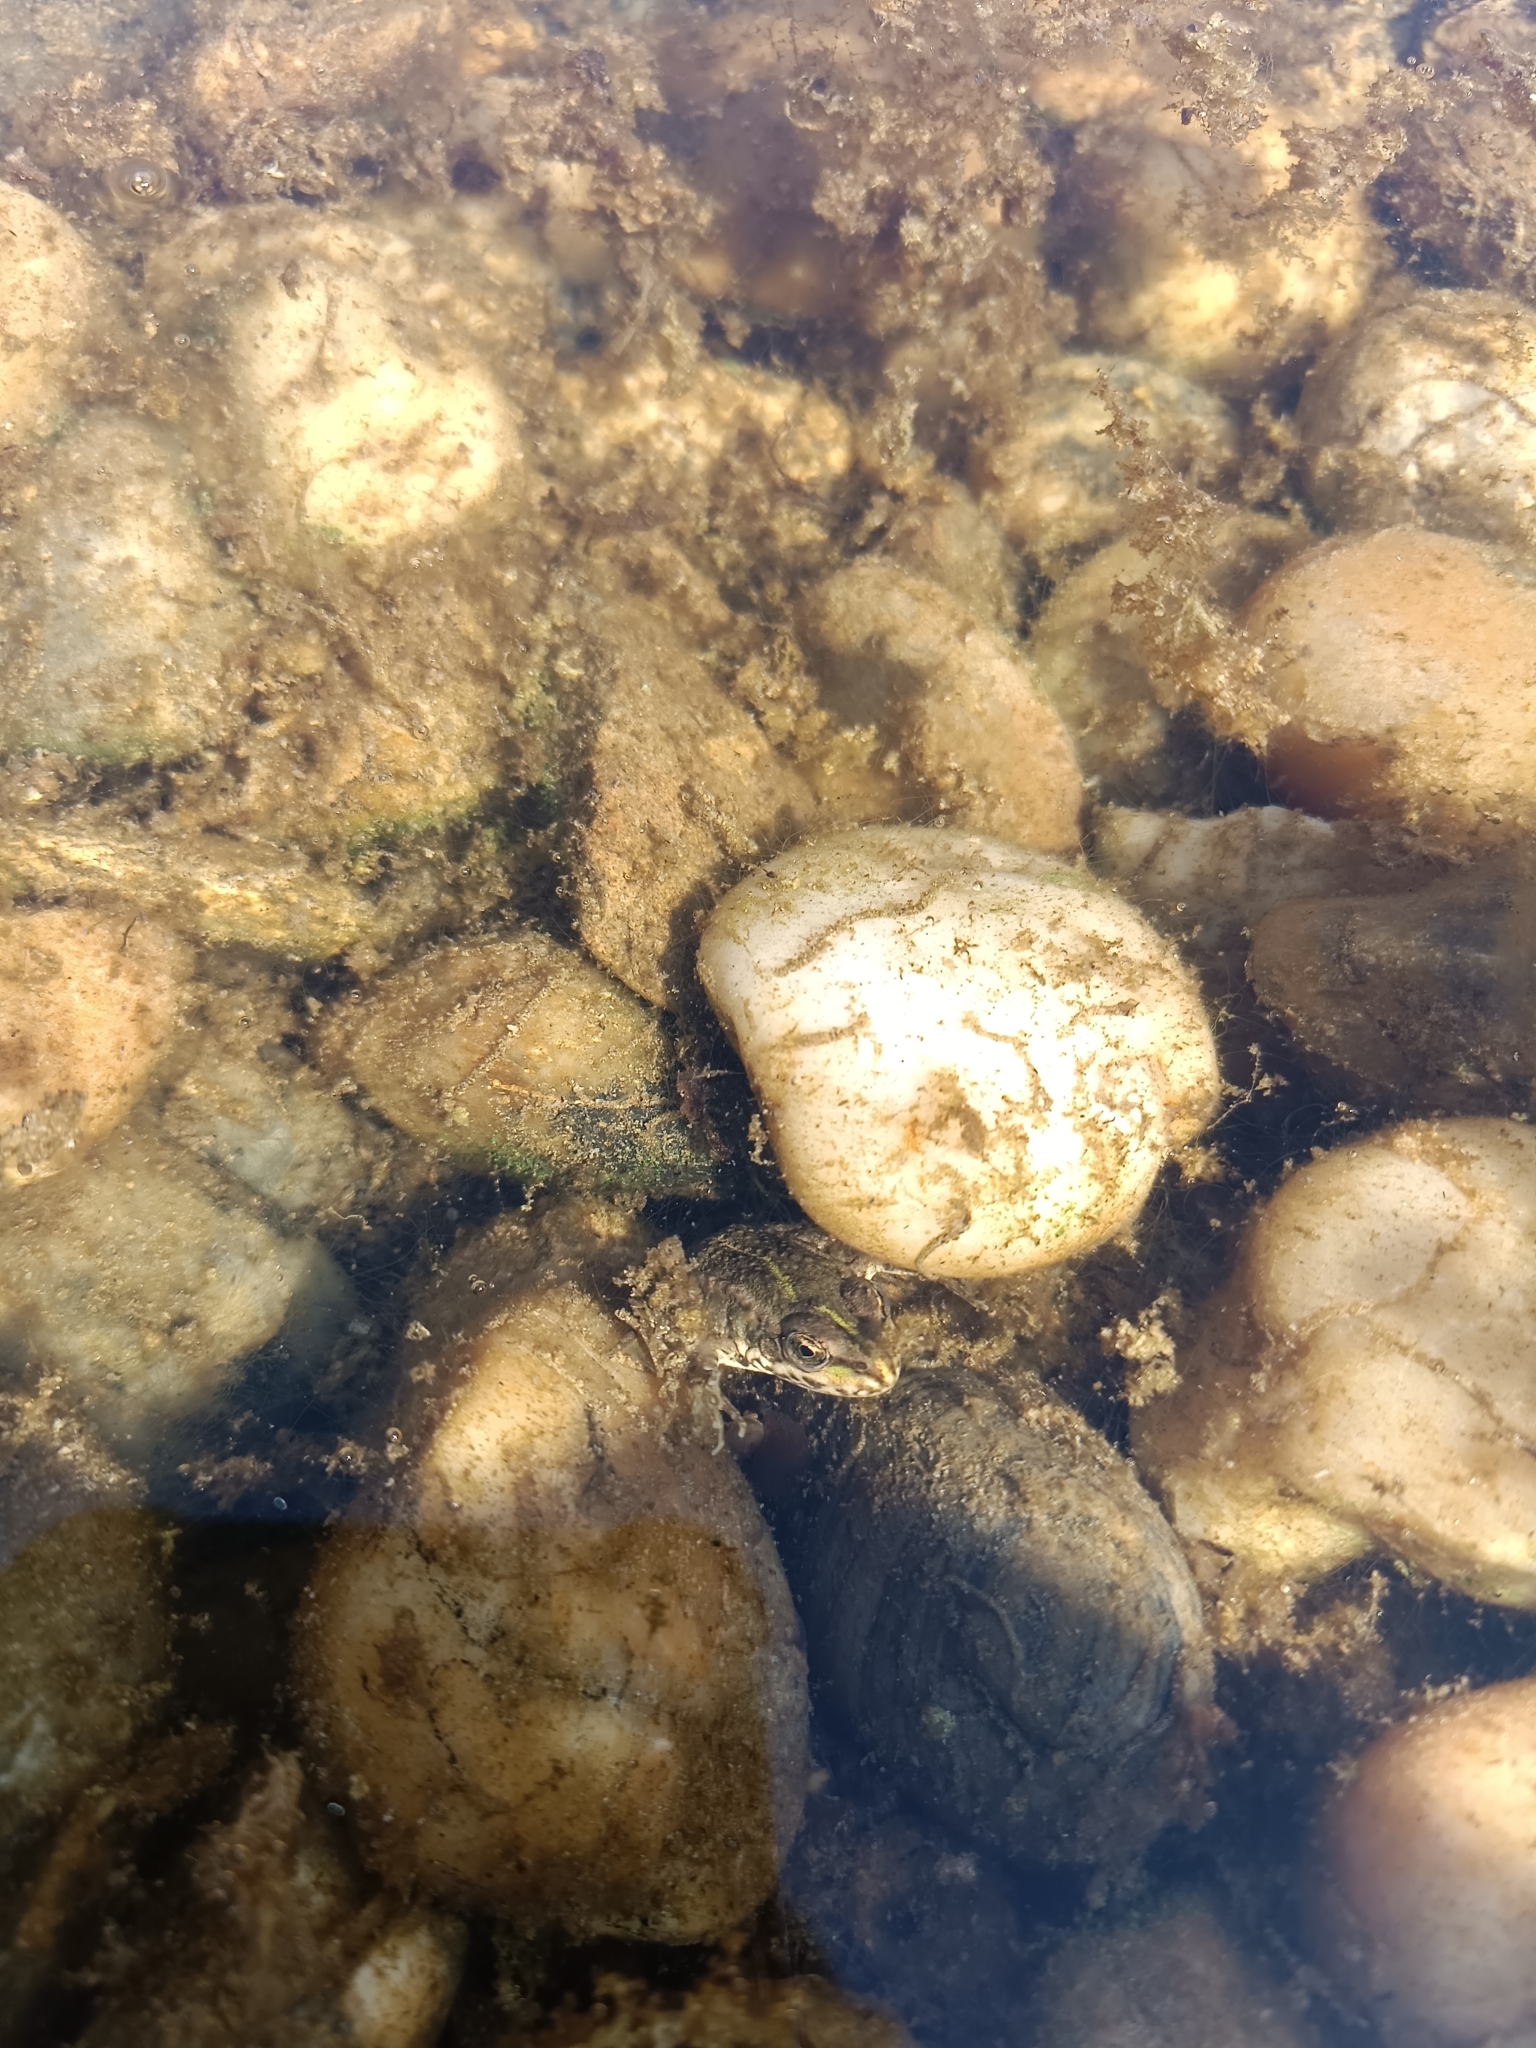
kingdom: Animalia
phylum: Chordata
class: Amphibia
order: Anura
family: Ranidae
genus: Pelophylax
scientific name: Pelophylax
